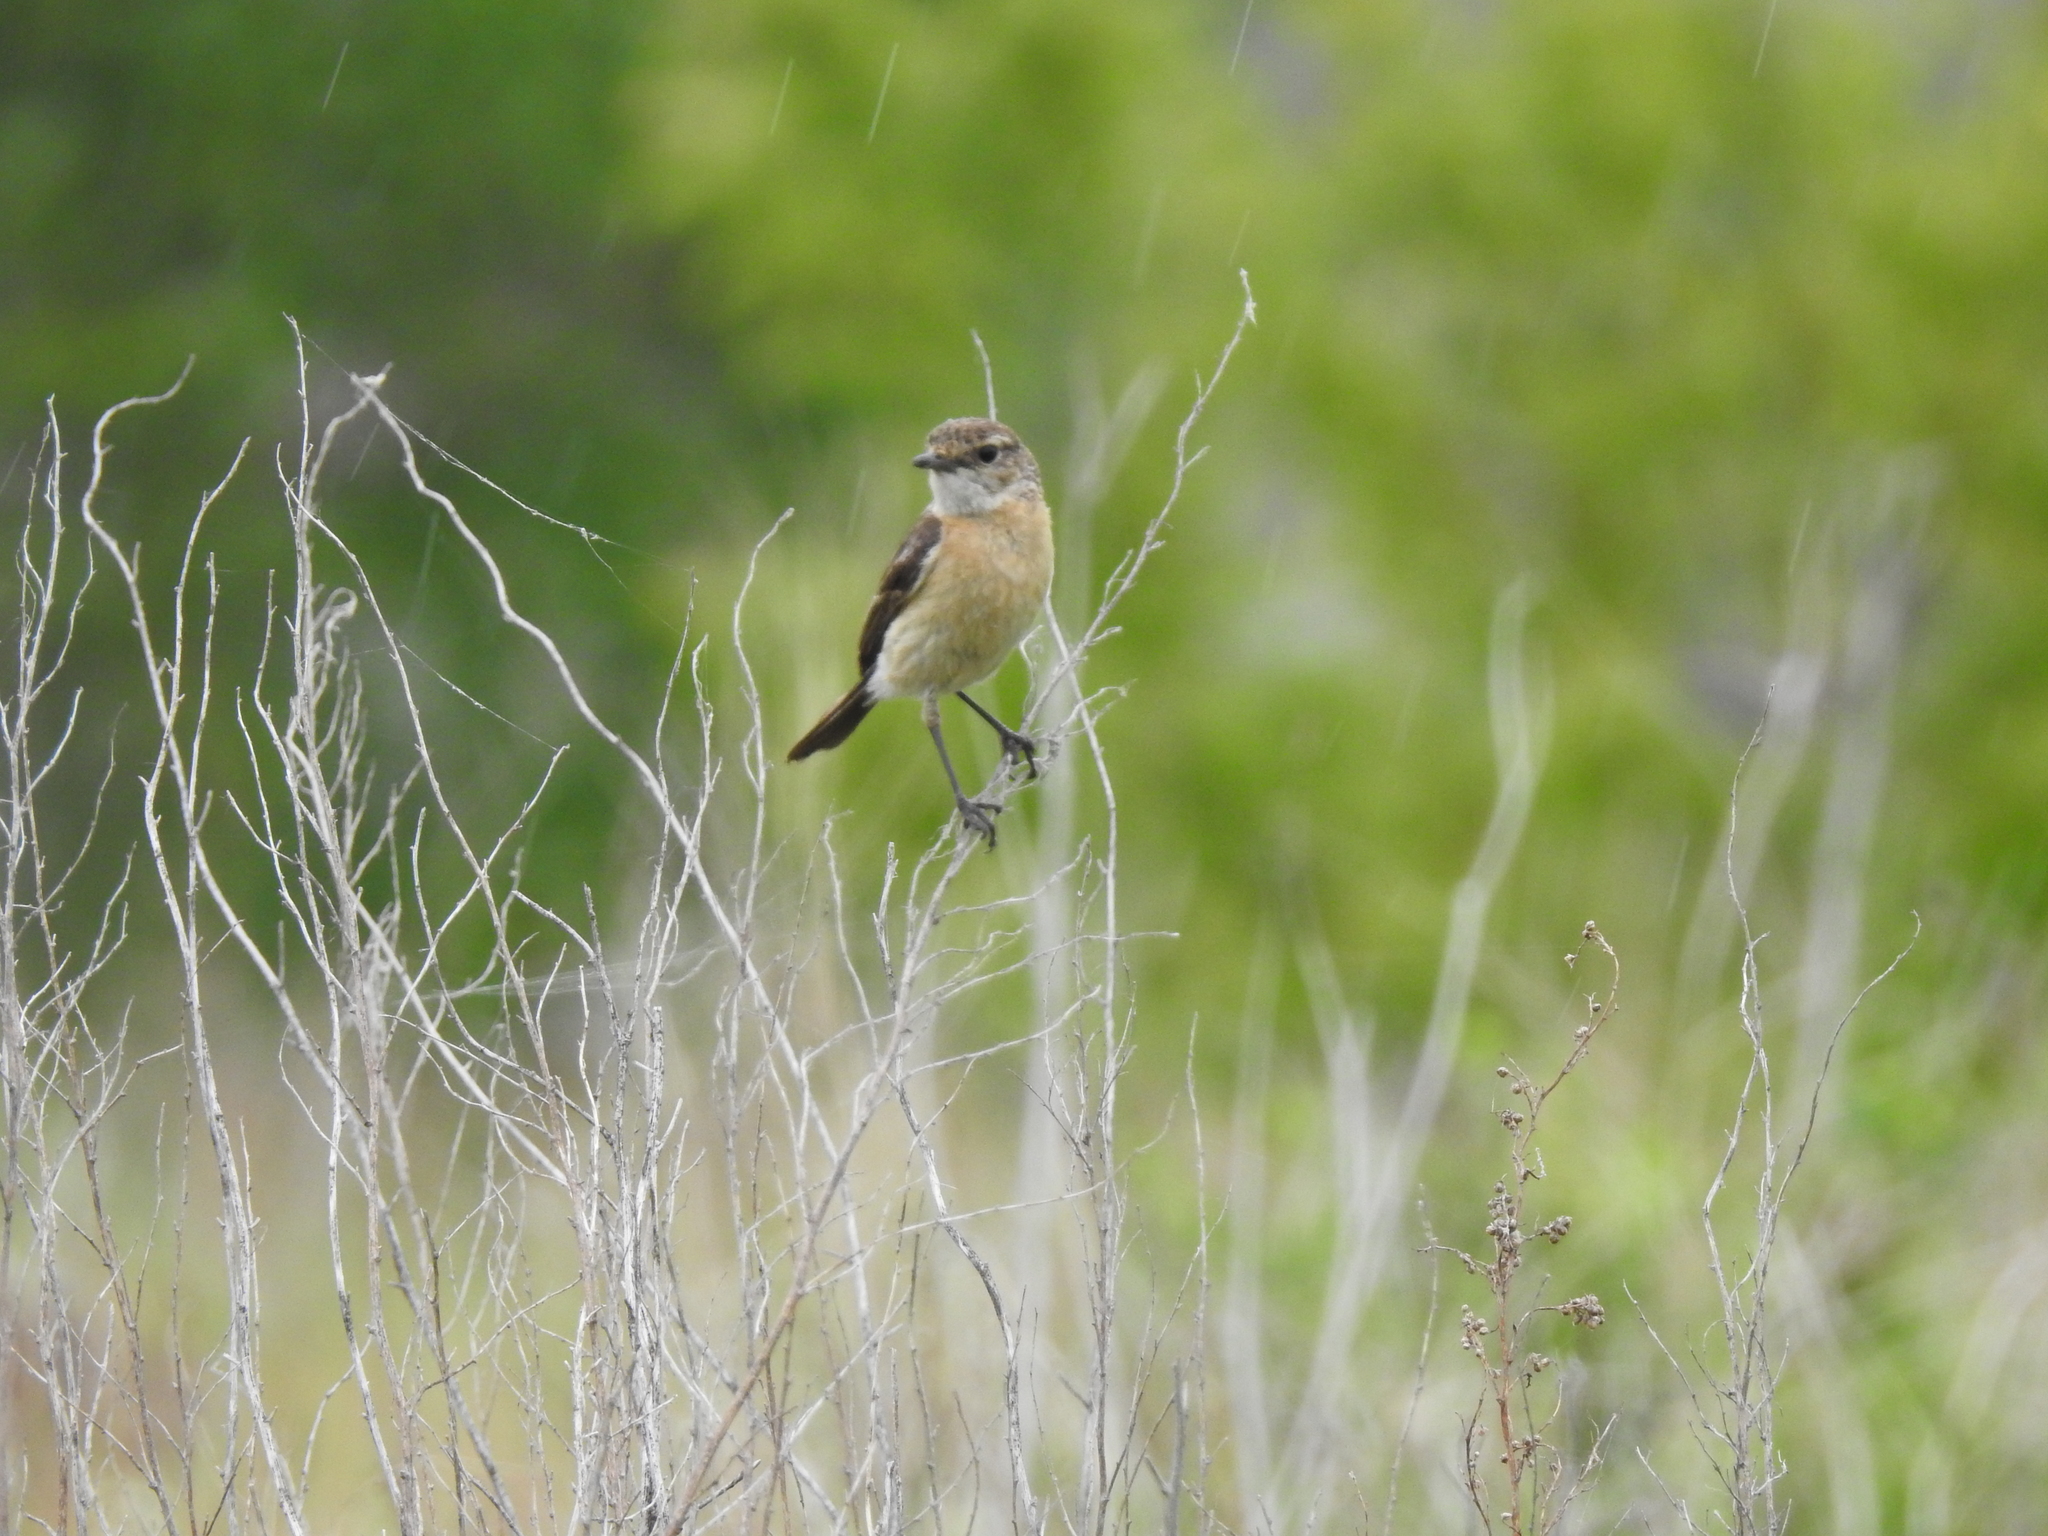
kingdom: Animalia
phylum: Chordata
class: Aves
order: Passeriformes
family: Muscicapidae
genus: Saxicola
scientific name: Saxicola maurus
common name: Siberian stonechat
